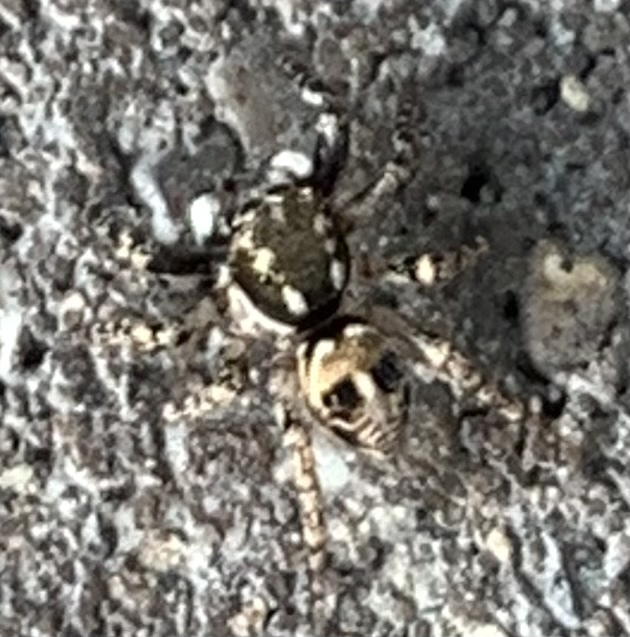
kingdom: Animalia
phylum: Arthropoda
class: Arachnida
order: Araneae
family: Salticidae
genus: Anasaitis
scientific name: Anasaitis canosa
